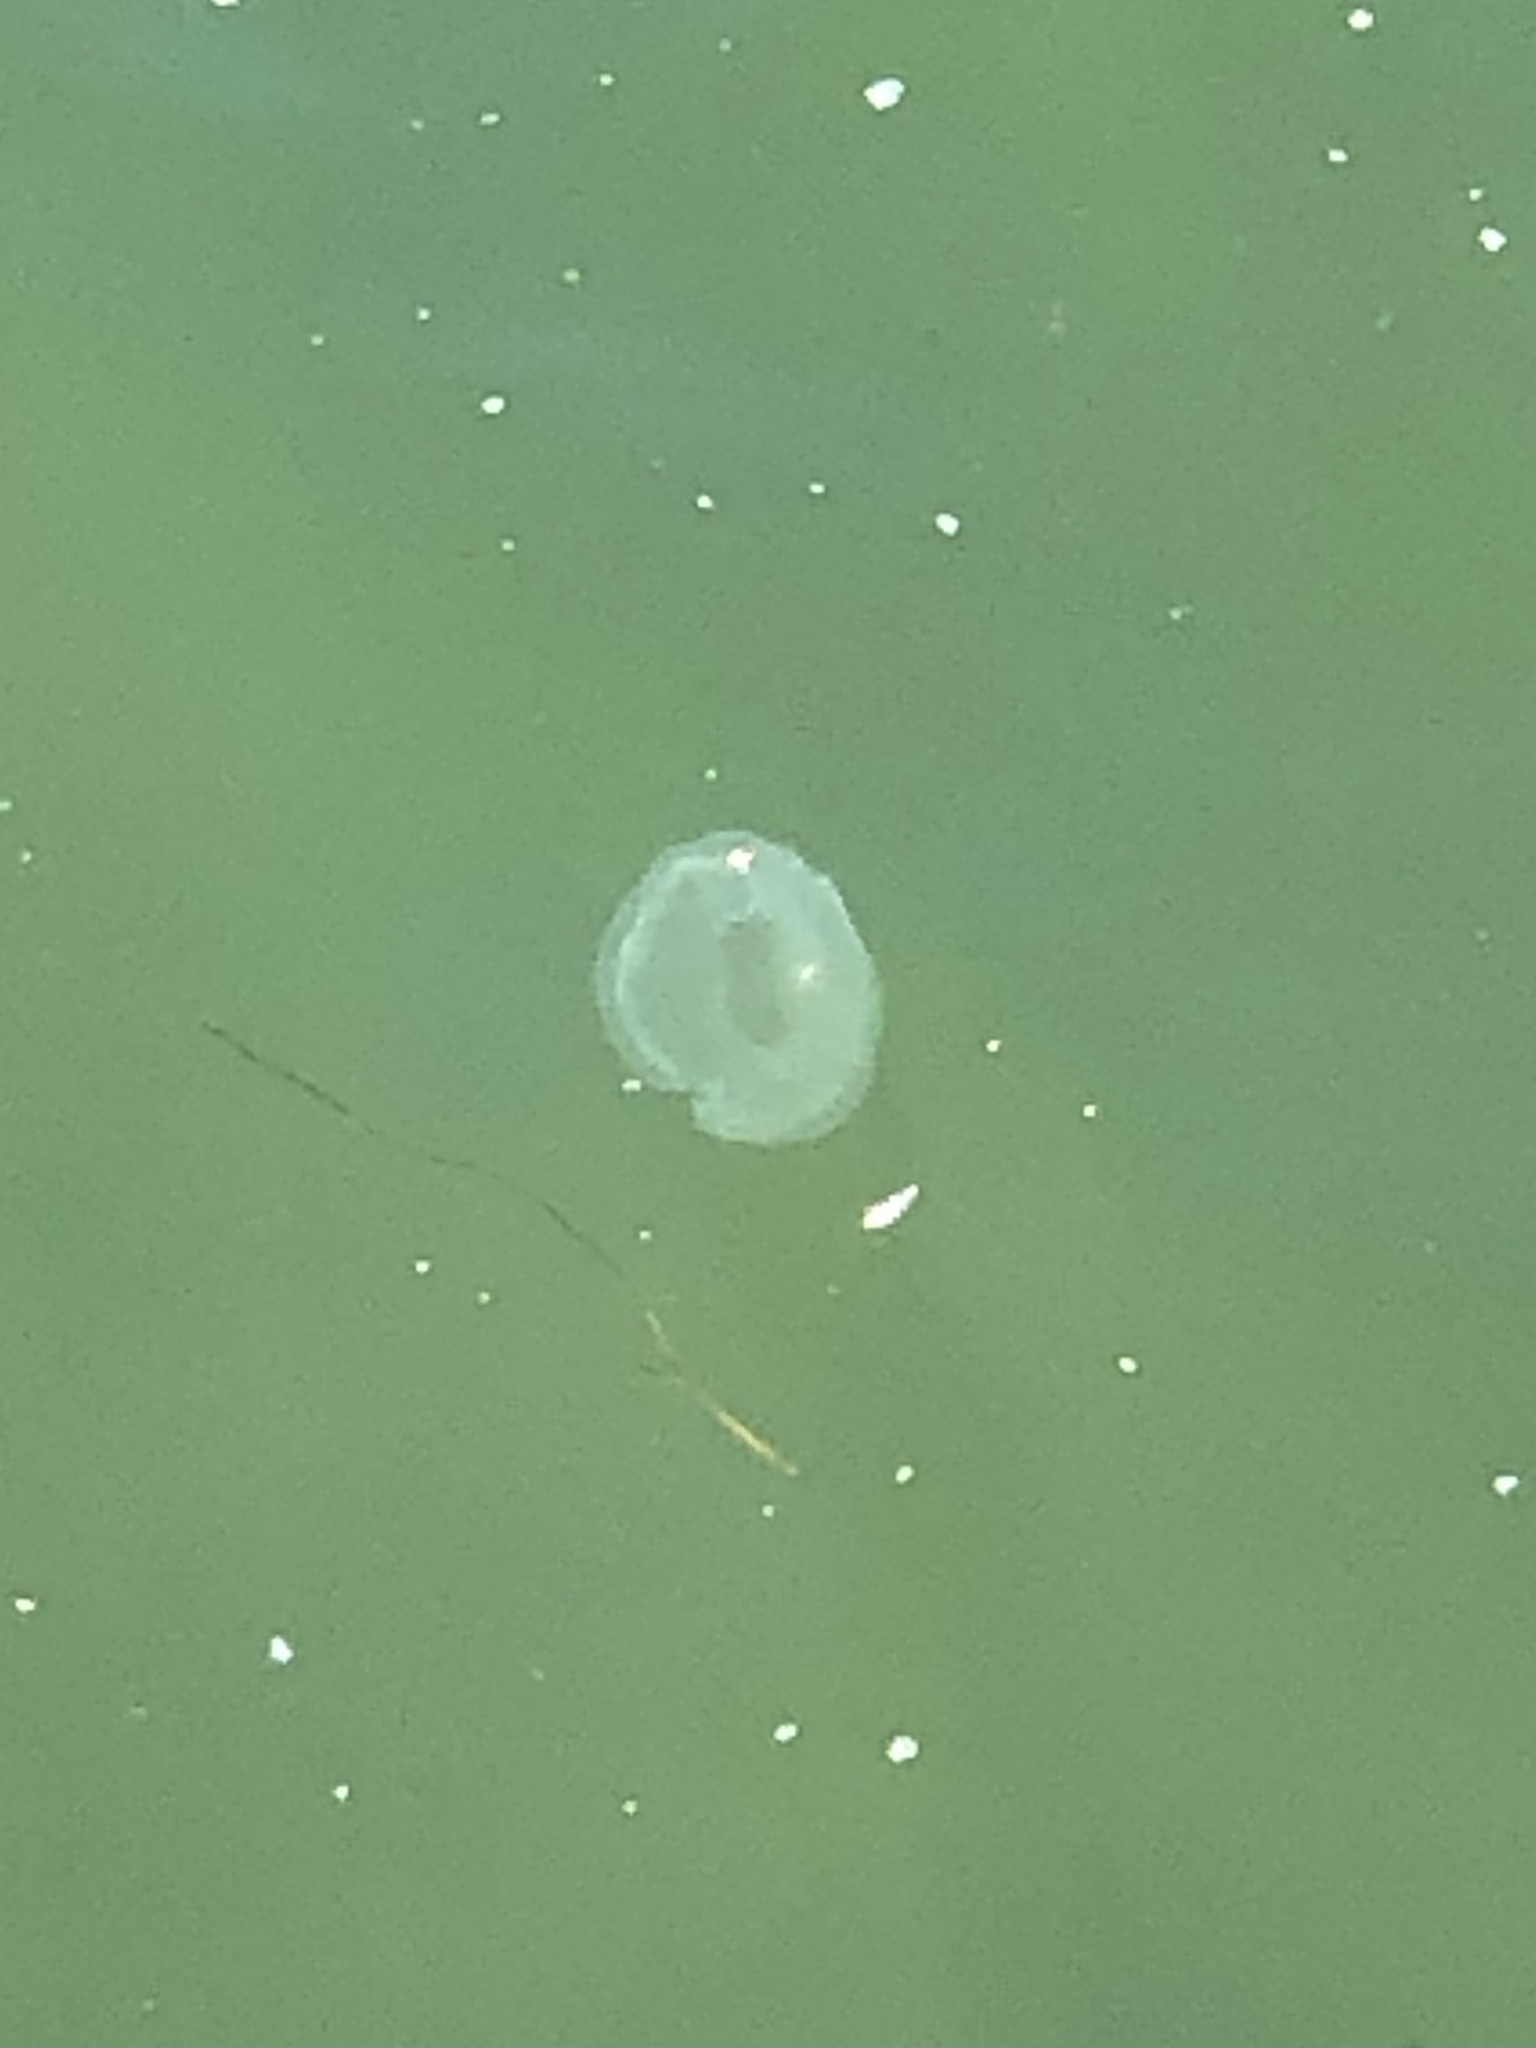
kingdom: Animalia
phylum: Cnidaria
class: Scyphozoa
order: Semaeostomeae
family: Ulmaridae
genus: Aurelia
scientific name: Aurelia labiata
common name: Pacific moon jelly
